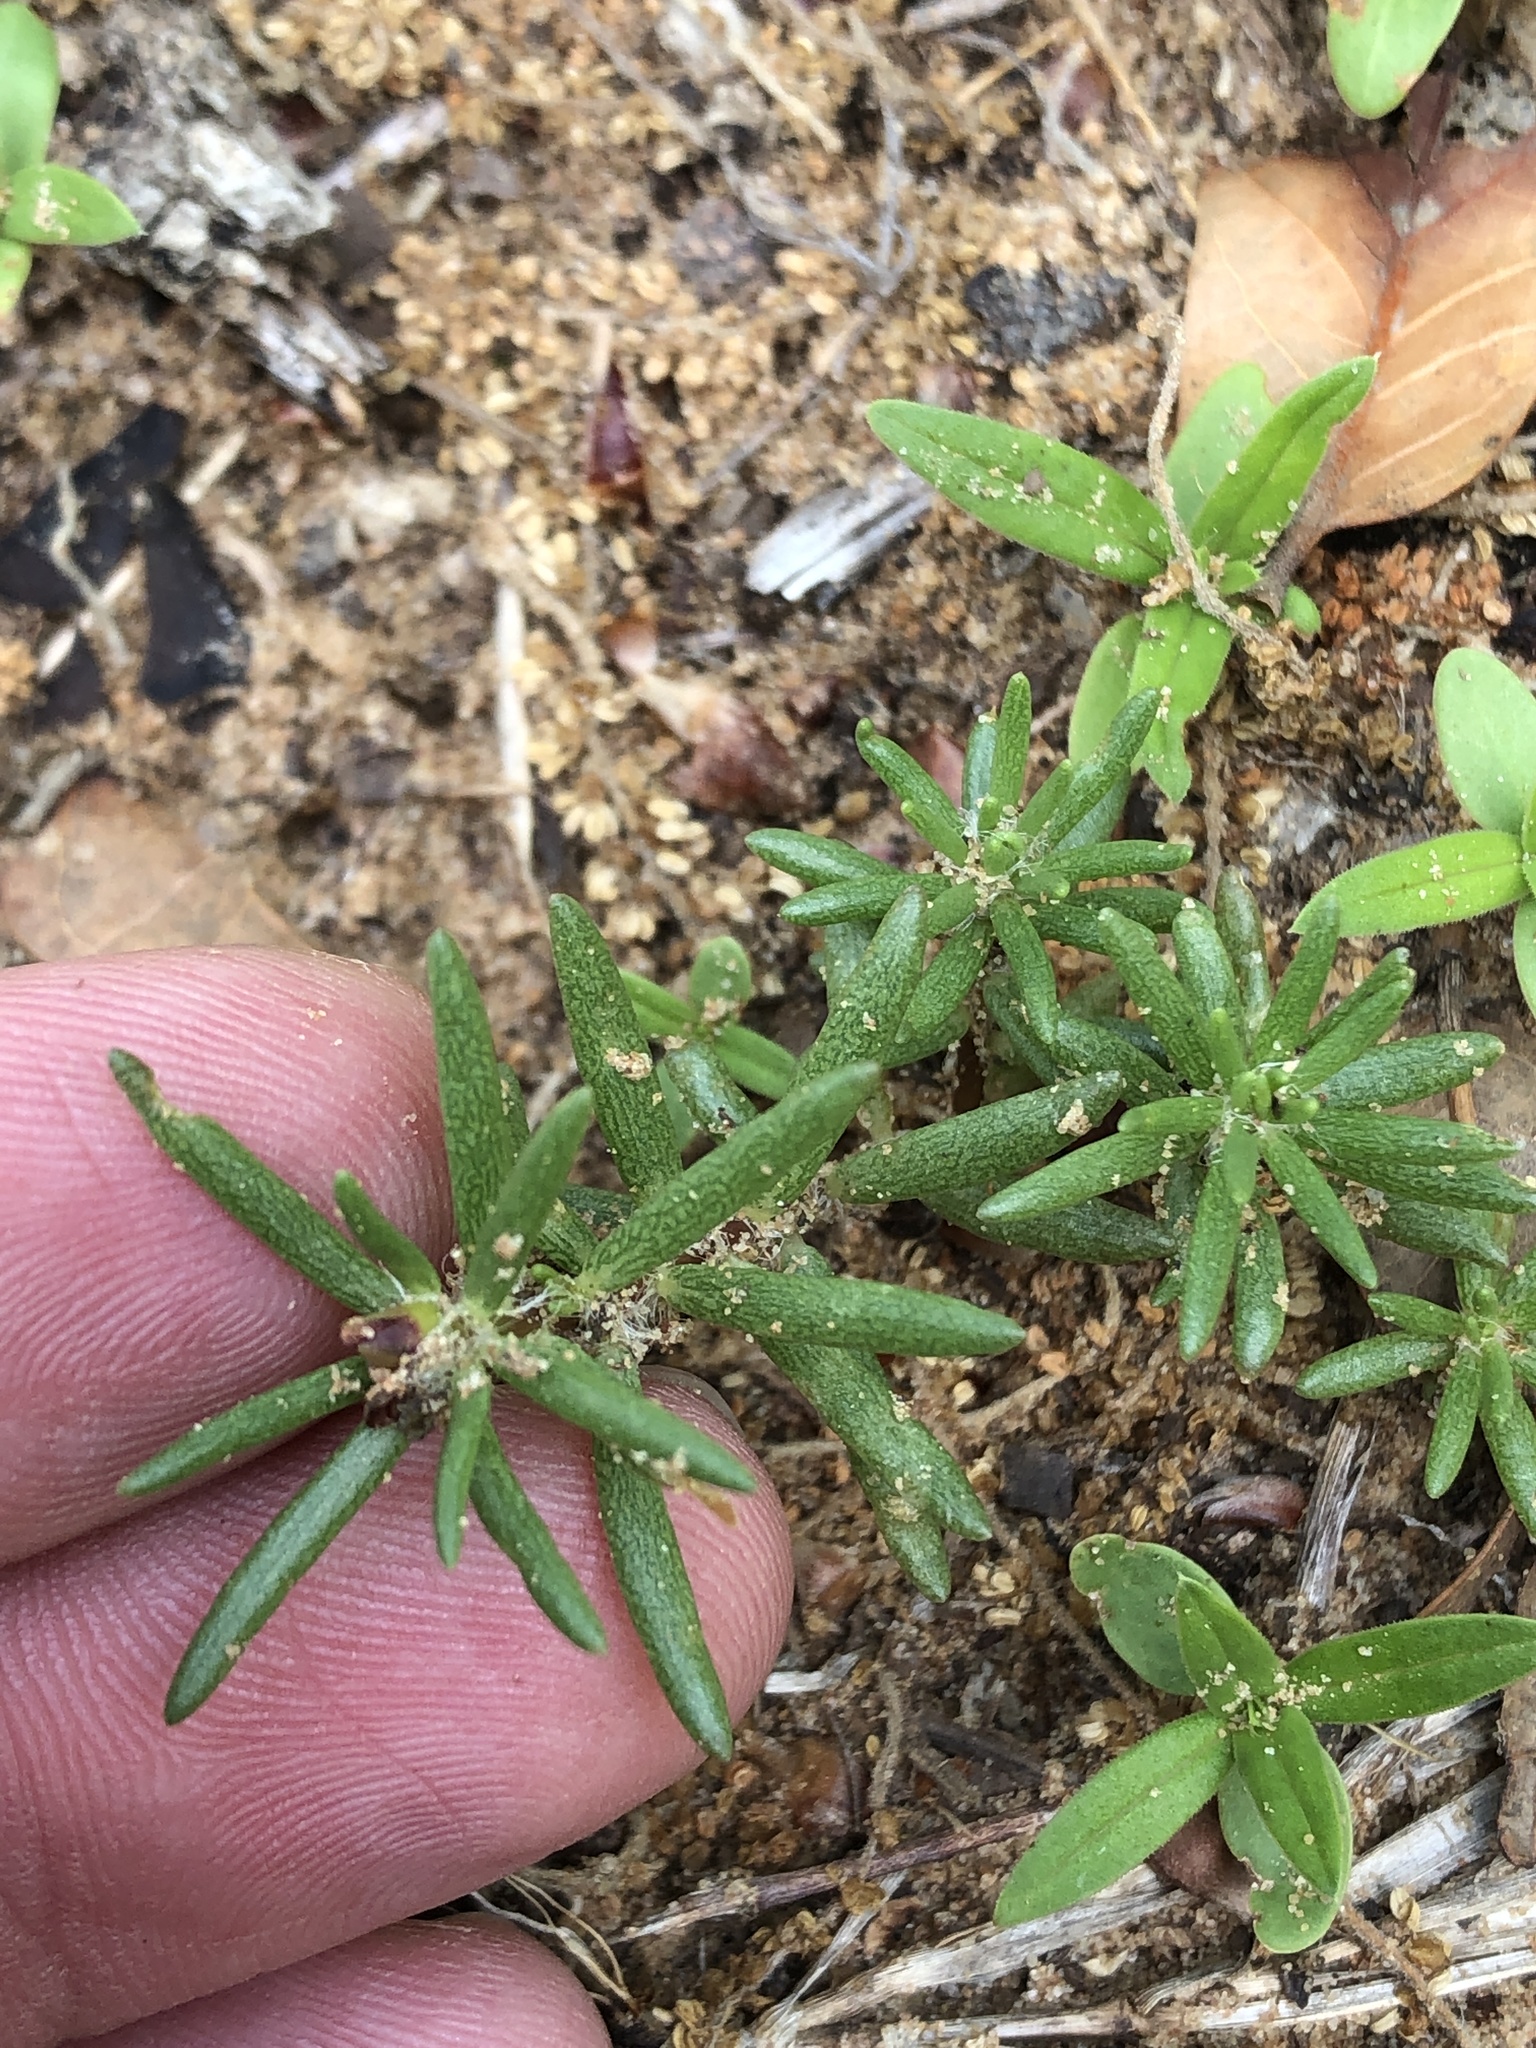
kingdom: Plantae
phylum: Tracheophyta
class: Magnoliopsida
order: Caryophyllales
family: Portulacaceae
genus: Portulaca
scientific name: Portulaca pilosa
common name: Kiss me quick
